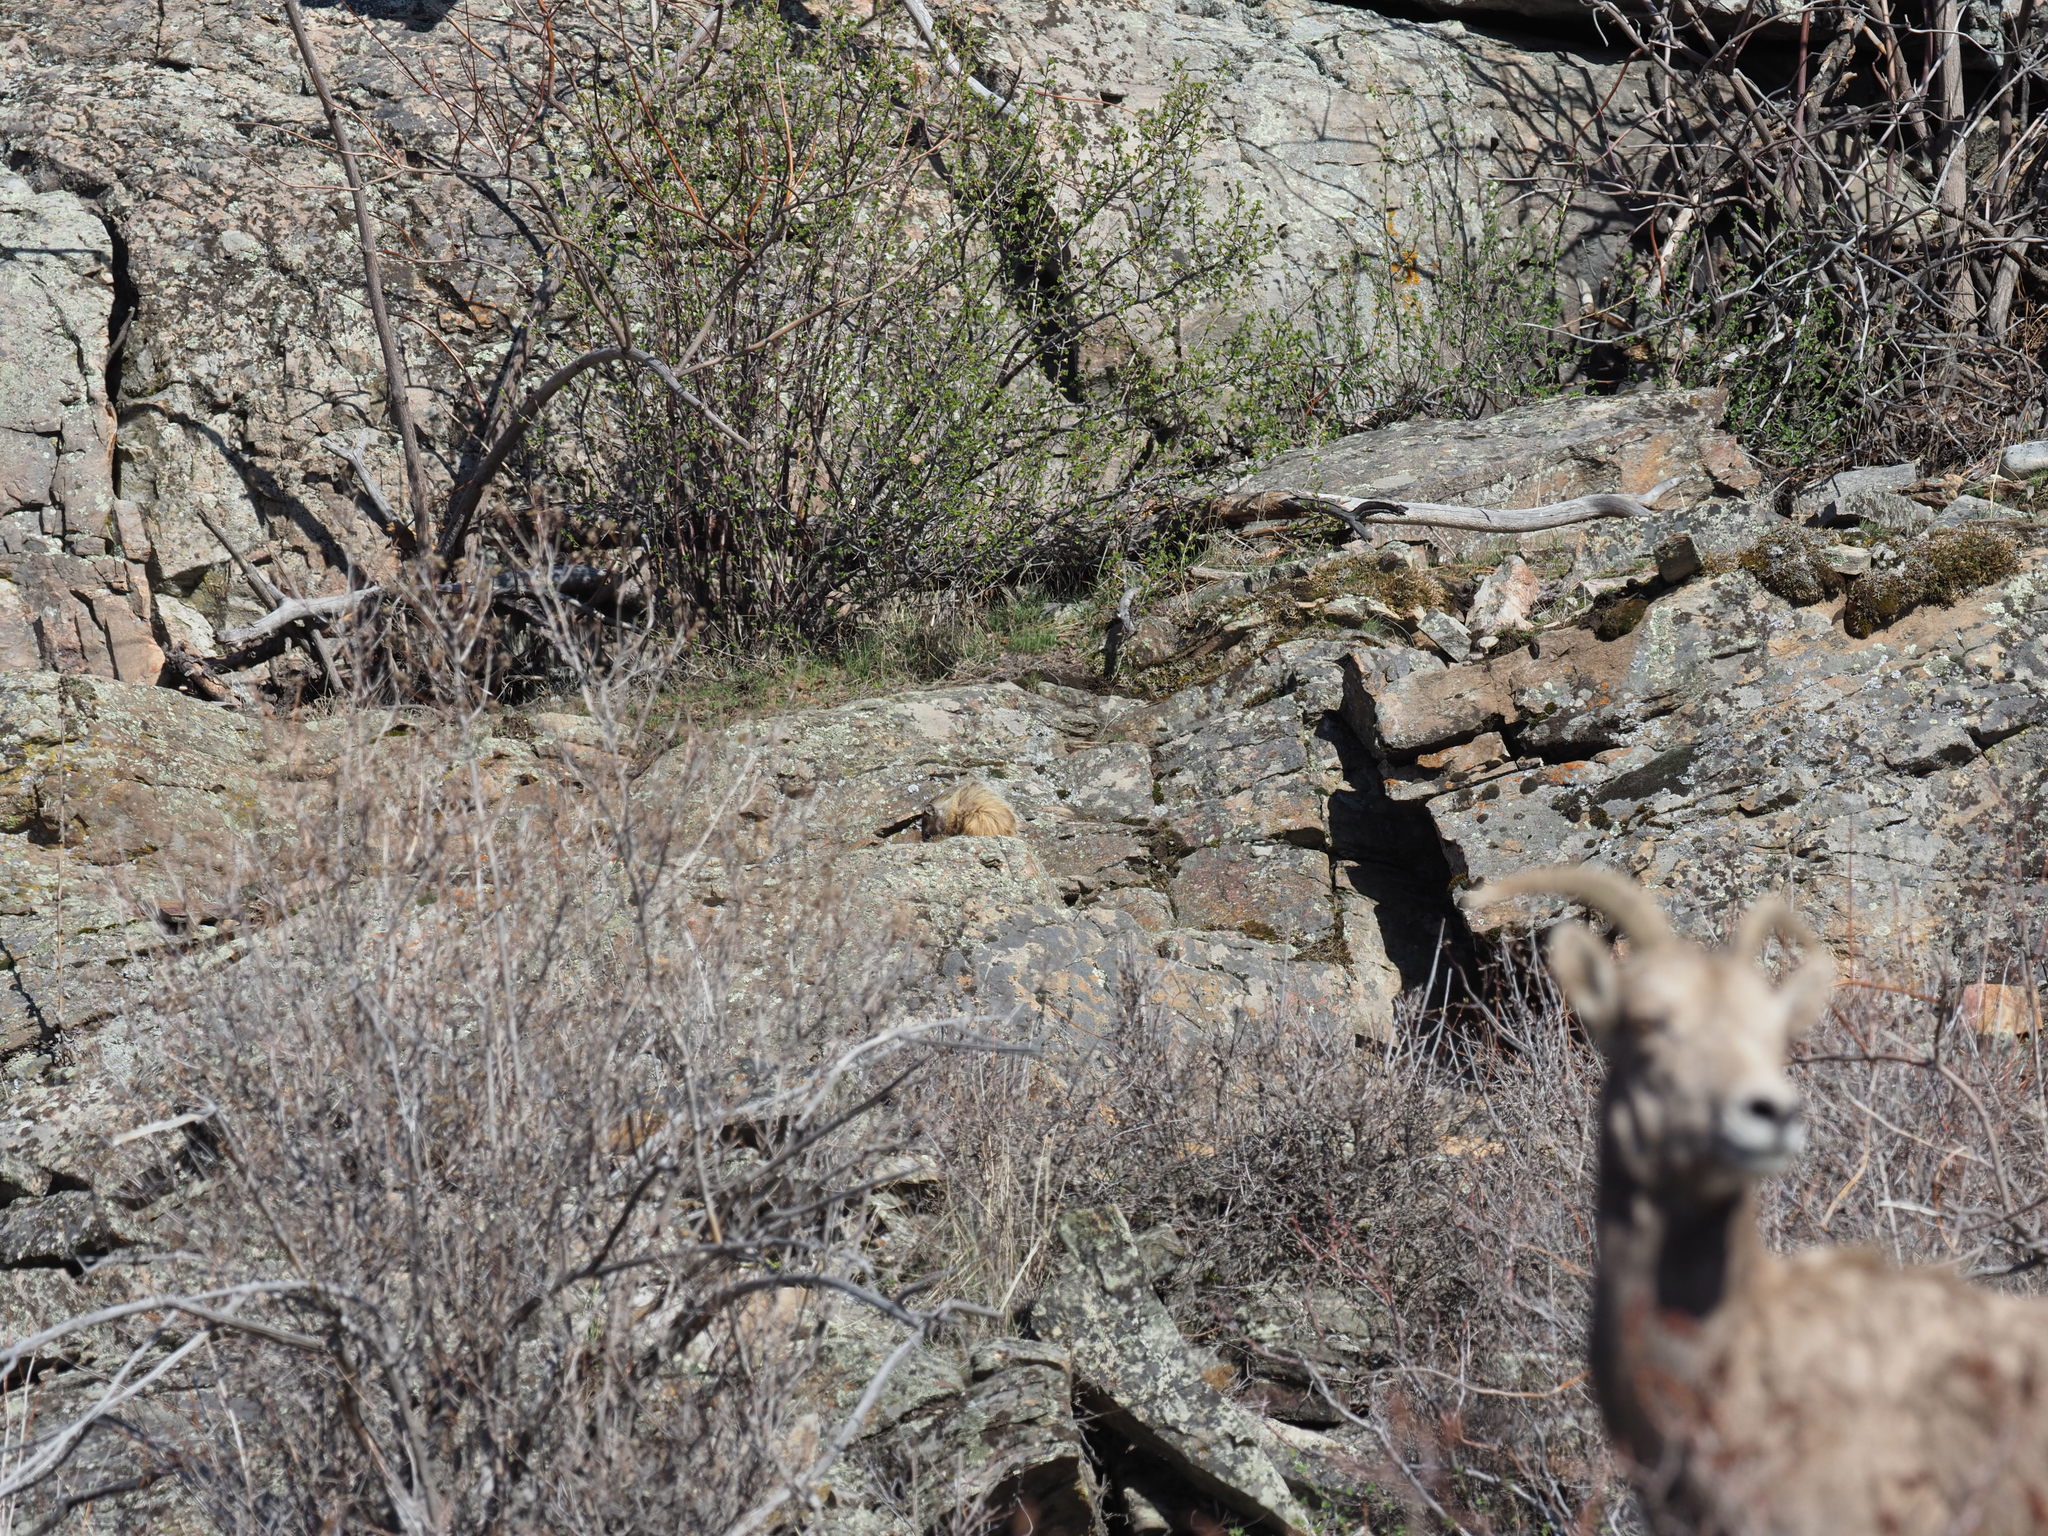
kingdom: Animalia
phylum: Chordata
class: Mammalia
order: Rodentia
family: Sciuridae
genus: Marmota
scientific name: Marmota flaviventris
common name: Yellow-bellied marmot
